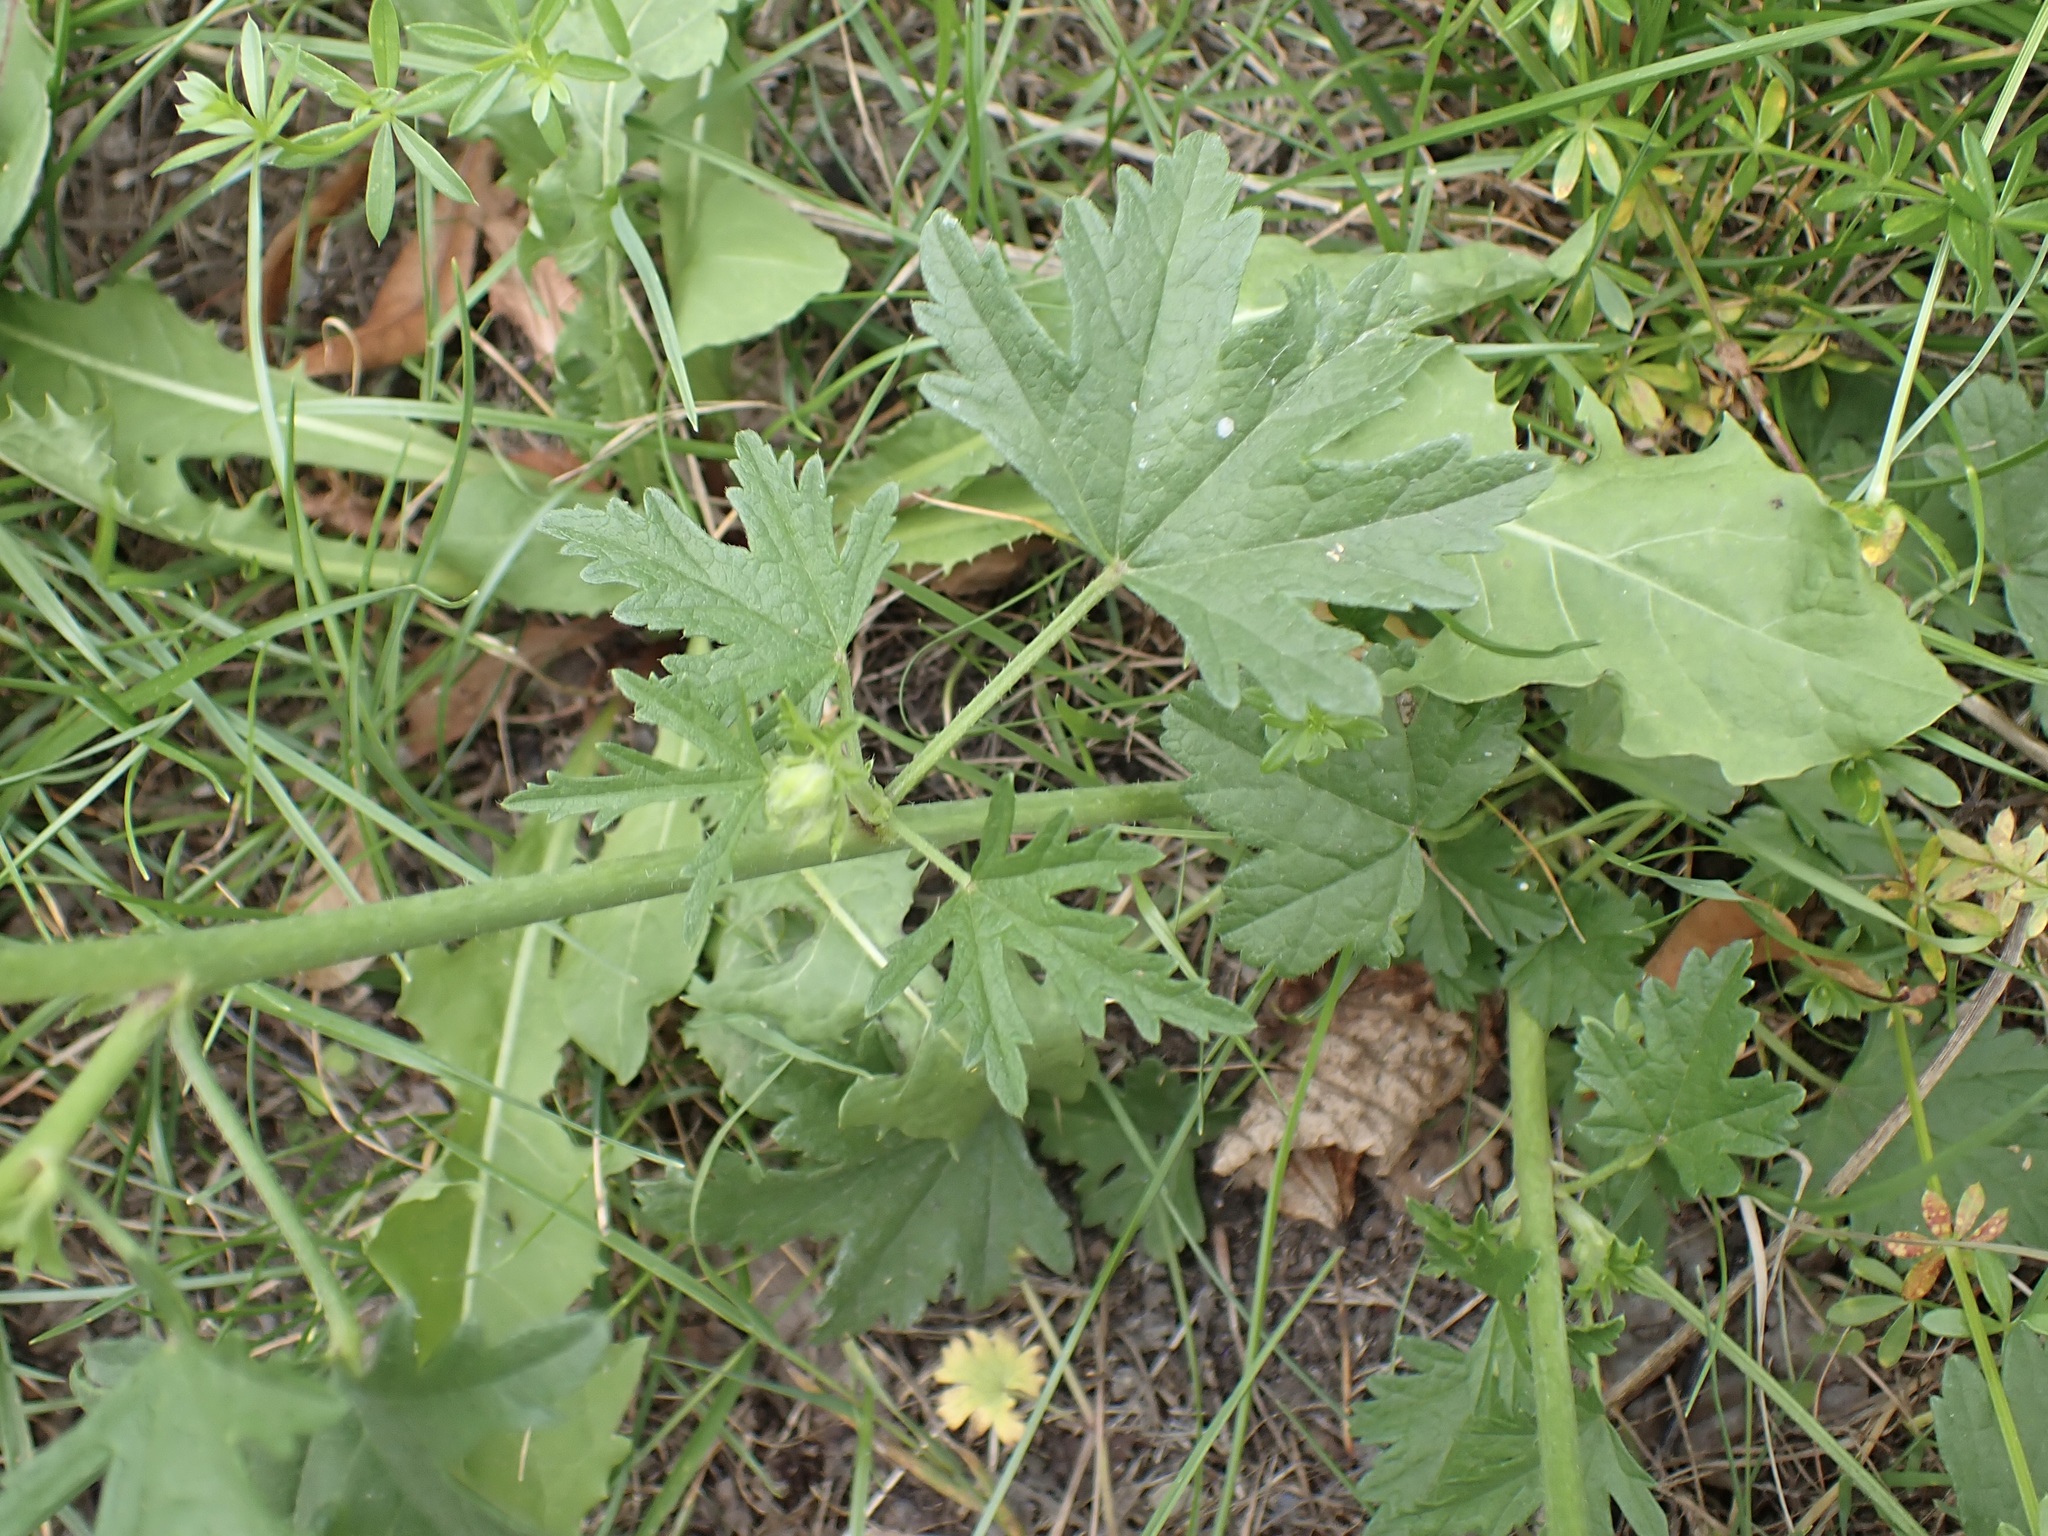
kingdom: Plantae
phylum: Tracheophyta
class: Magnoliopsida
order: Malvales
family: Malvaceae
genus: Malva
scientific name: Malva alcea
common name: Greater musk-mallow
